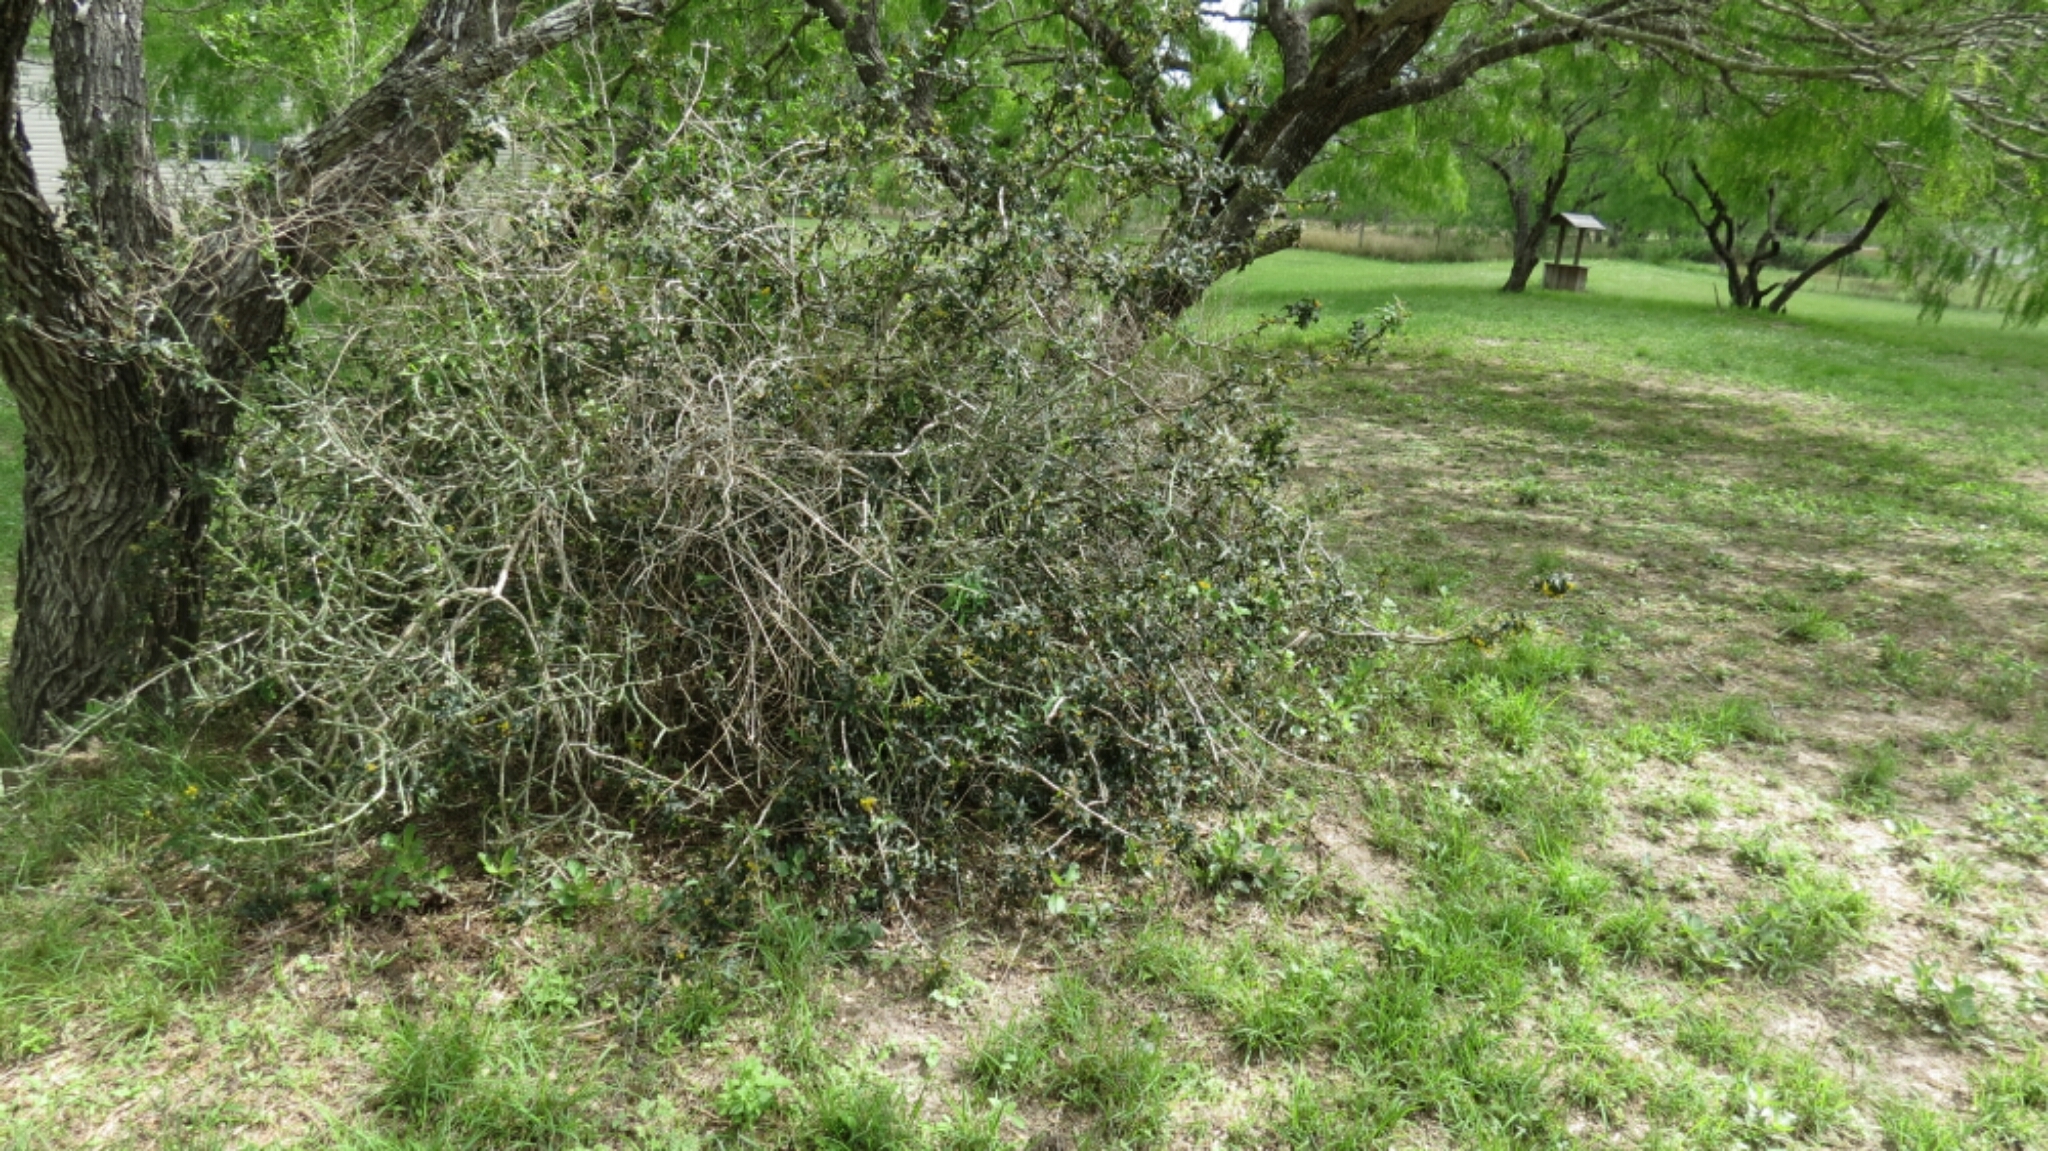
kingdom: Plantae
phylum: Tracheophyta
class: Magnoliopsida
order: Ranunculales
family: Berberidaceae
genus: Alloberberis
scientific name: Alloberberis trifoliolata
